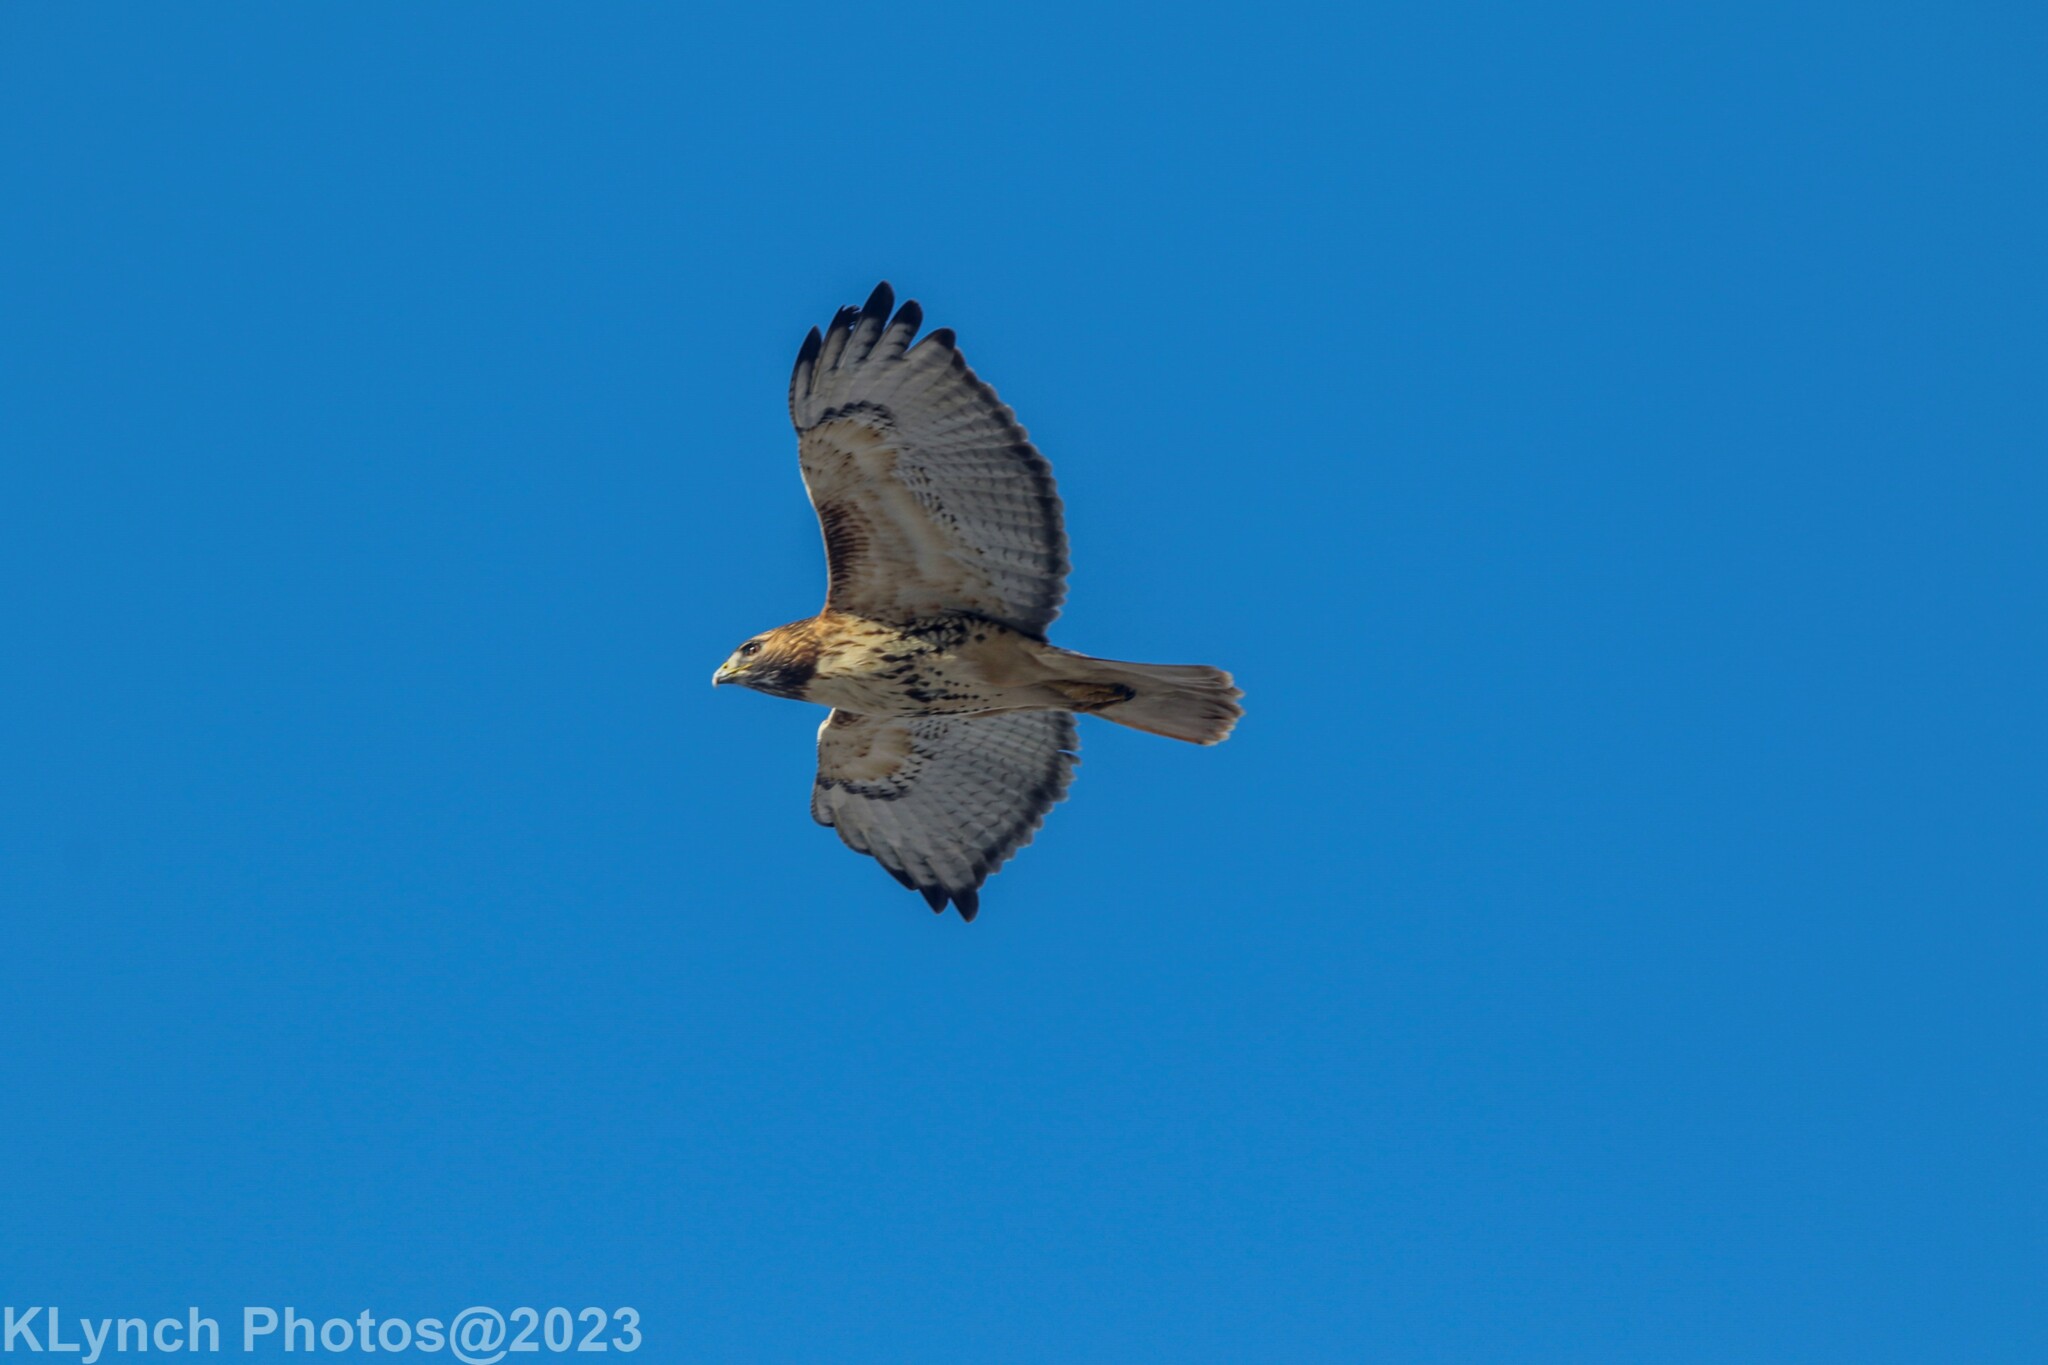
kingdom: Animalia
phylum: Chordata
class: Aves
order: Accipitriformes
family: Accipitridae
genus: Buteo
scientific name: Buteo jamaicensis
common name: Red-tailed hawk
